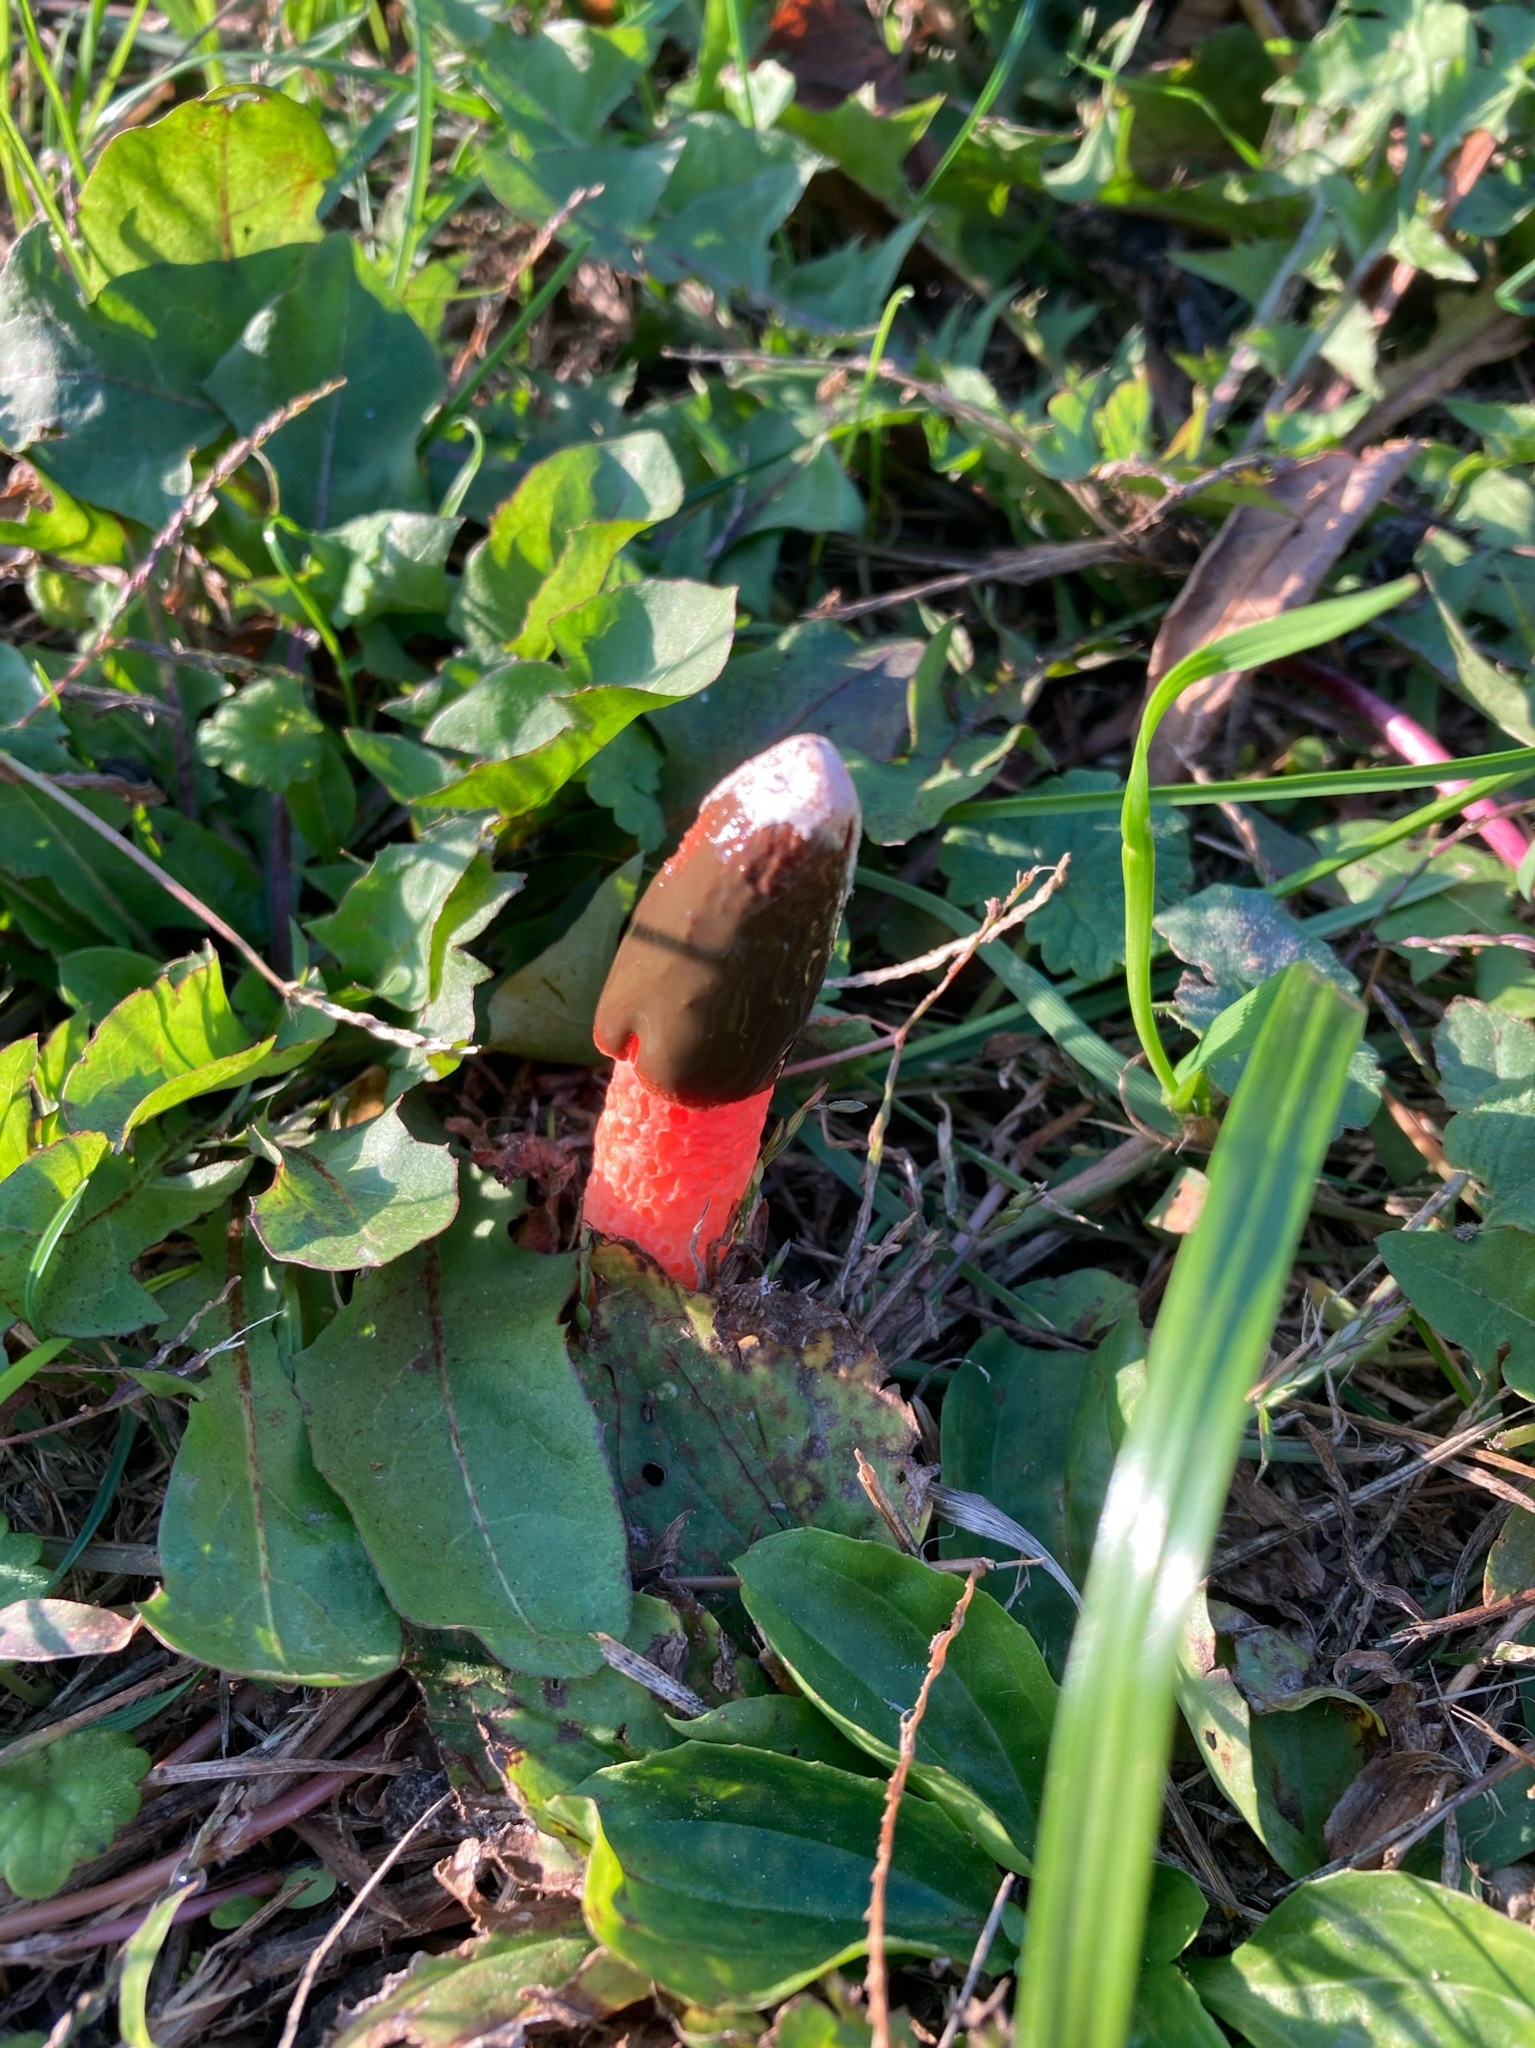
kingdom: Fungi
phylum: Basidiomycota
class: Agaricomycetes
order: Phallales
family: Phallaceae
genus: Phallus
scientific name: Phallus rugulosus
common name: Wrinkly stinkhorn
